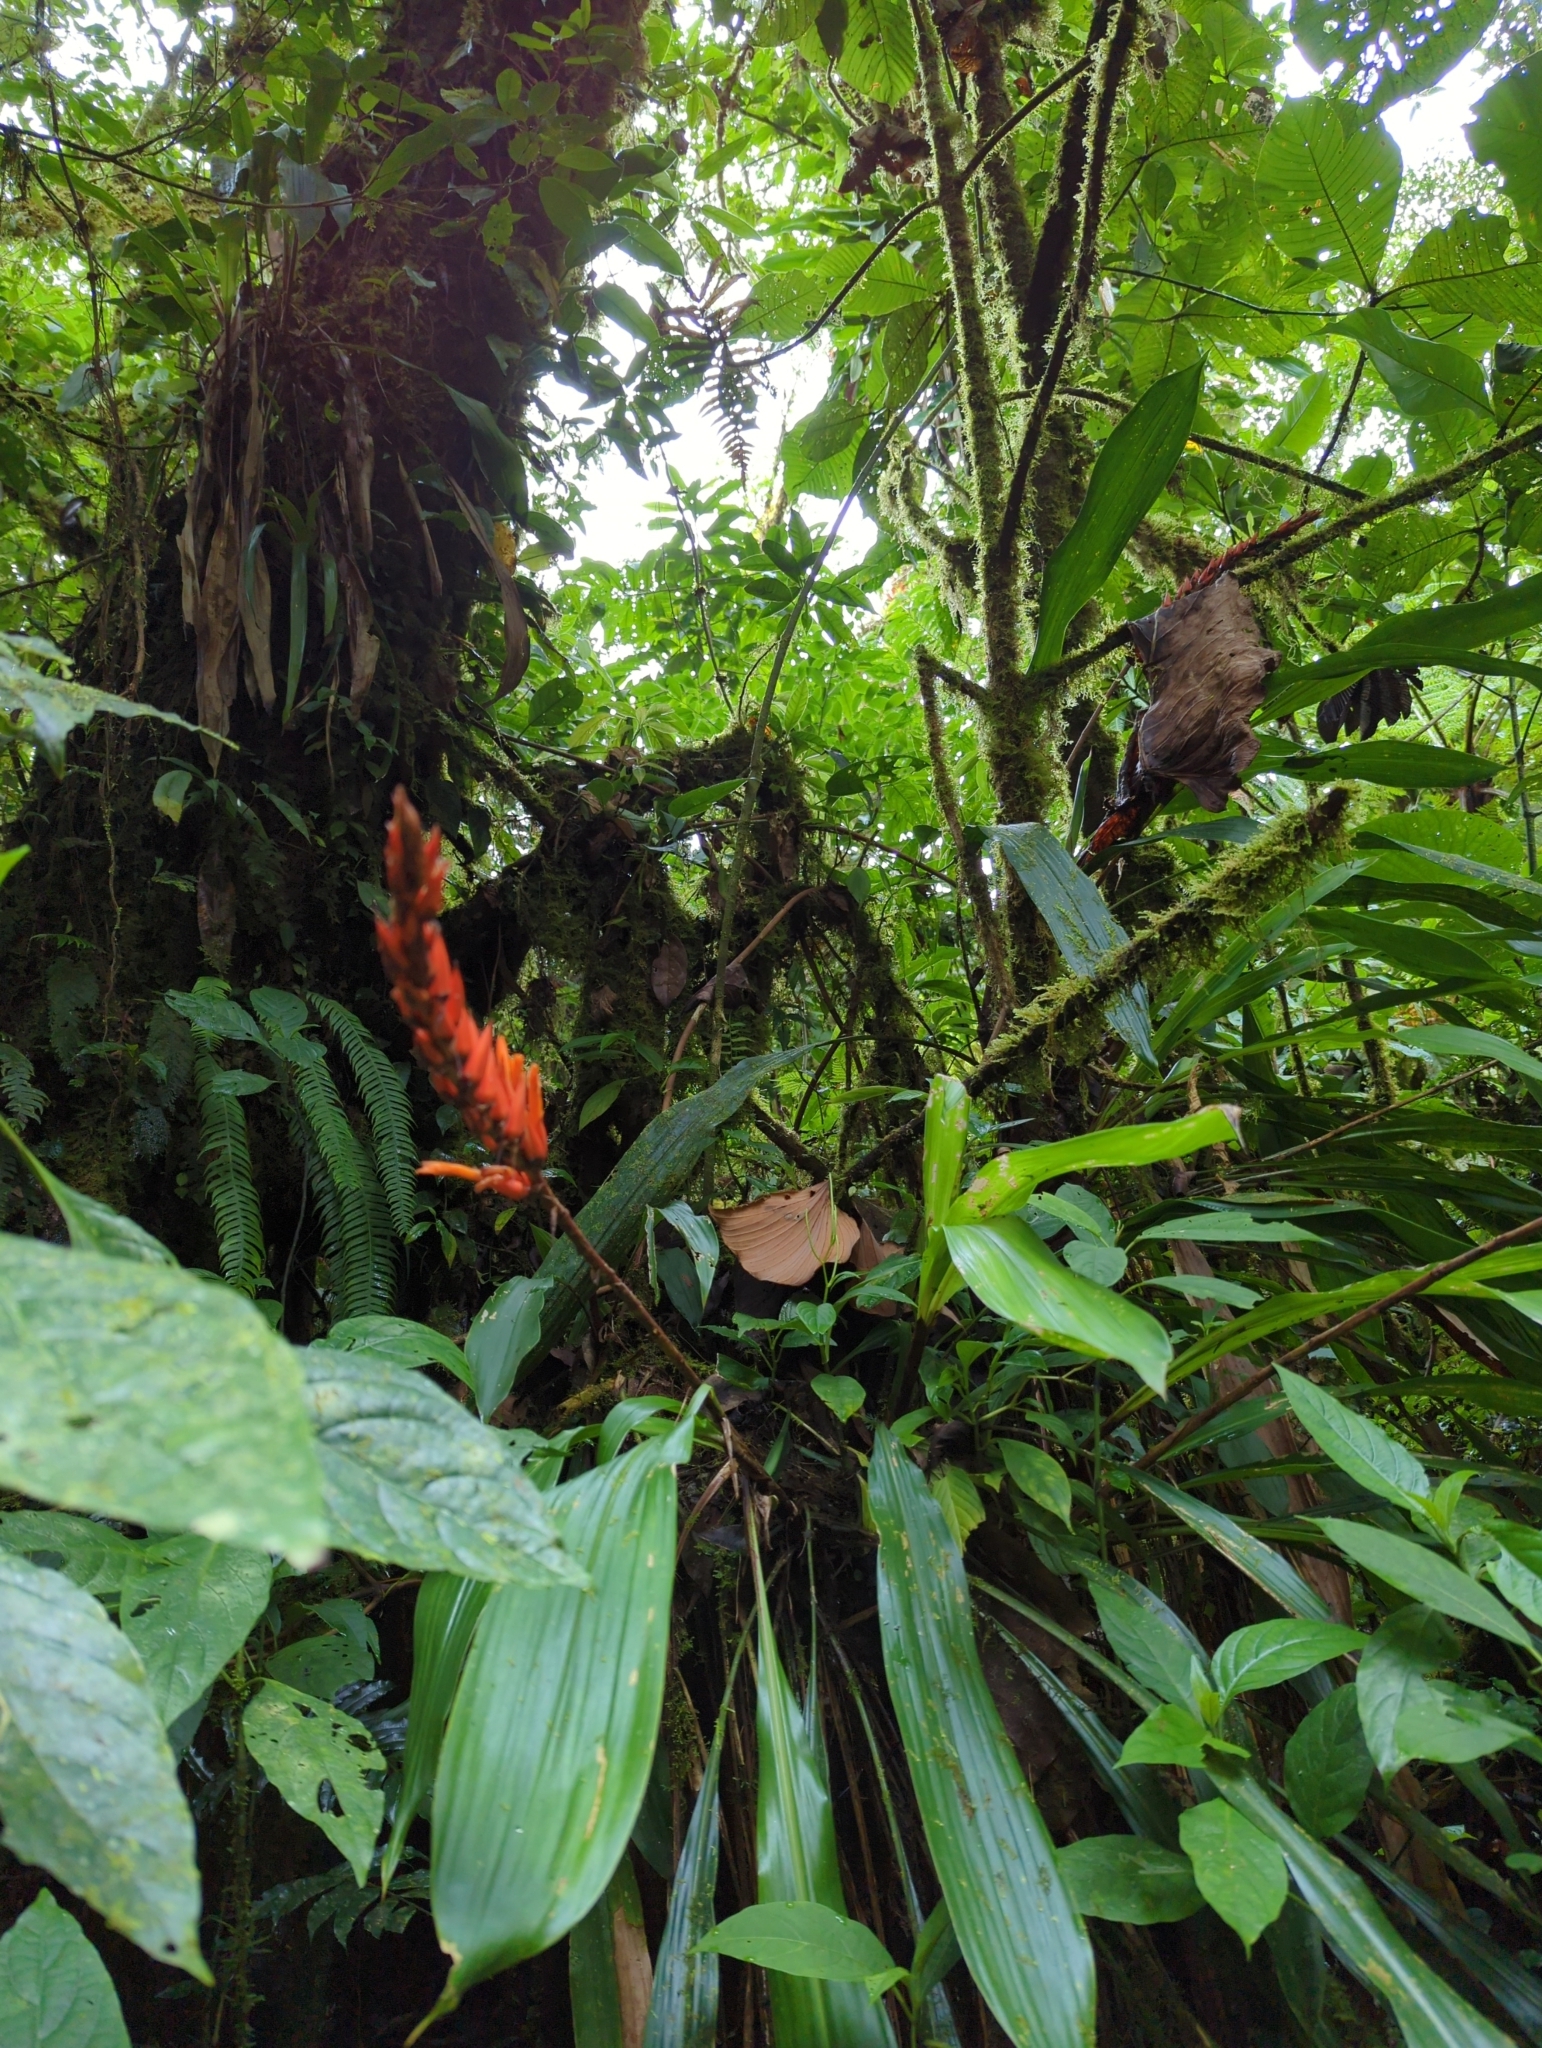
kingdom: Plantae
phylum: Tracheophyta
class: Liliopsida
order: Poales
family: Bromeliaceae
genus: Pitcairnia
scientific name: Pitcairnia brittoniana
